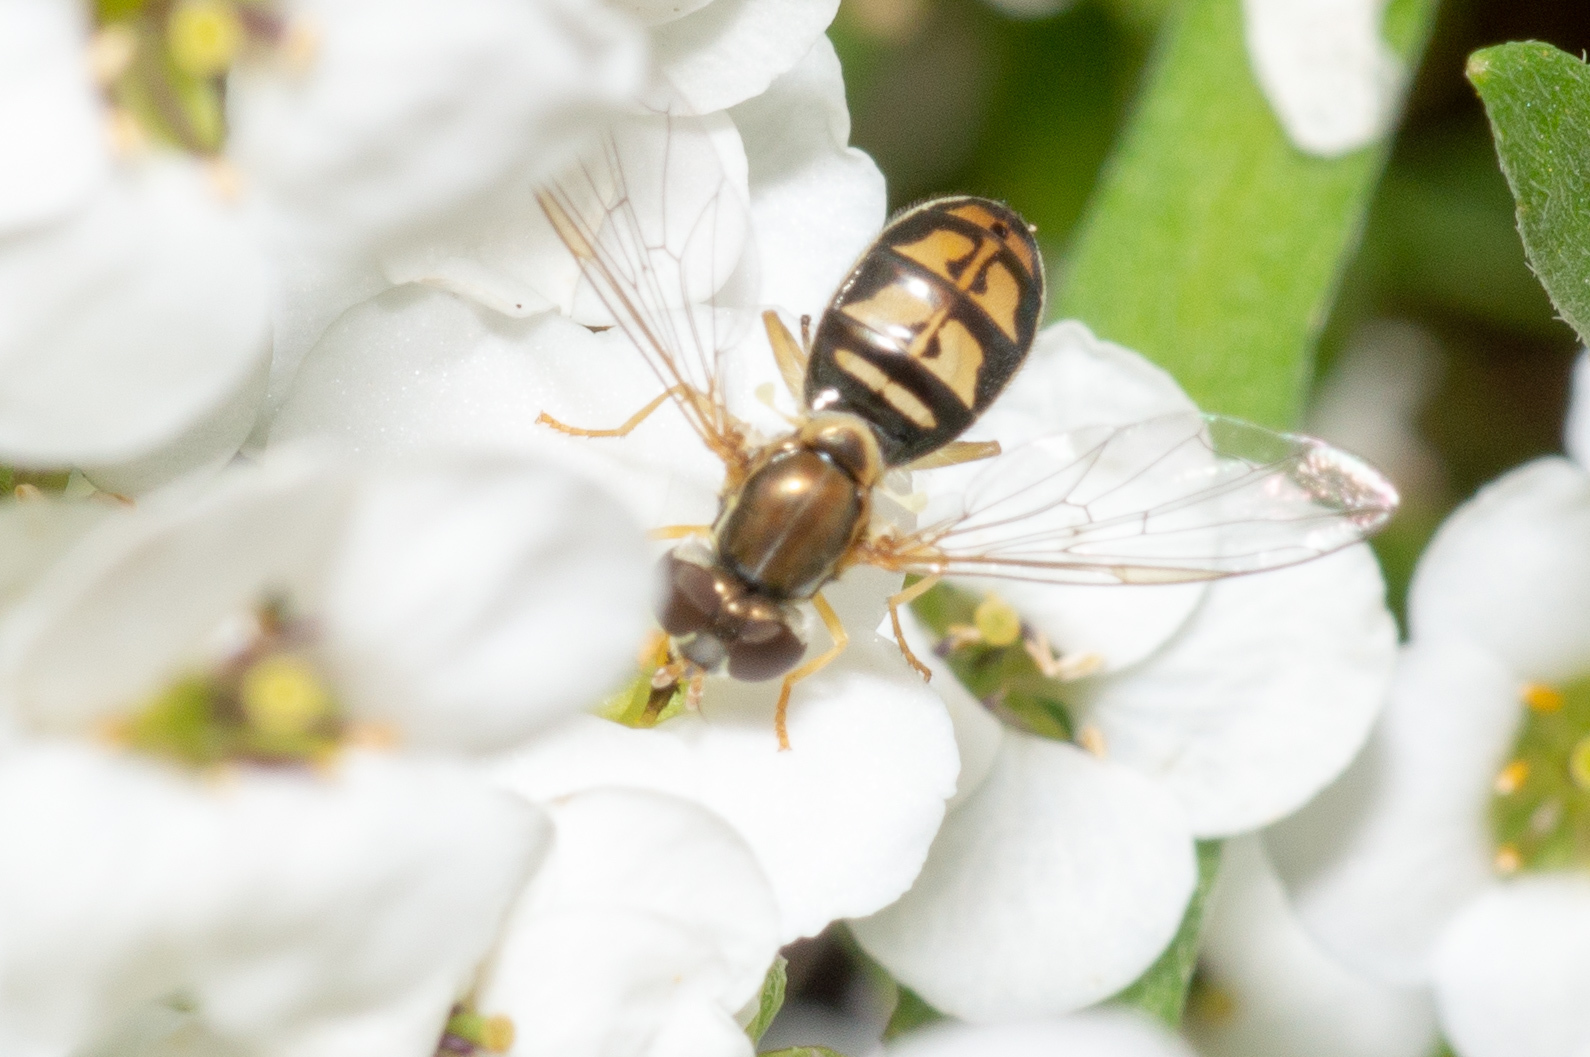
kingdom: Animalia
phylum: Arthropoda
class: Insecta
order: Diptera
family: Syrphidae
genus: Toxomerus
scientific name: Toxomerus marginatus
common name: Syrphid fly
